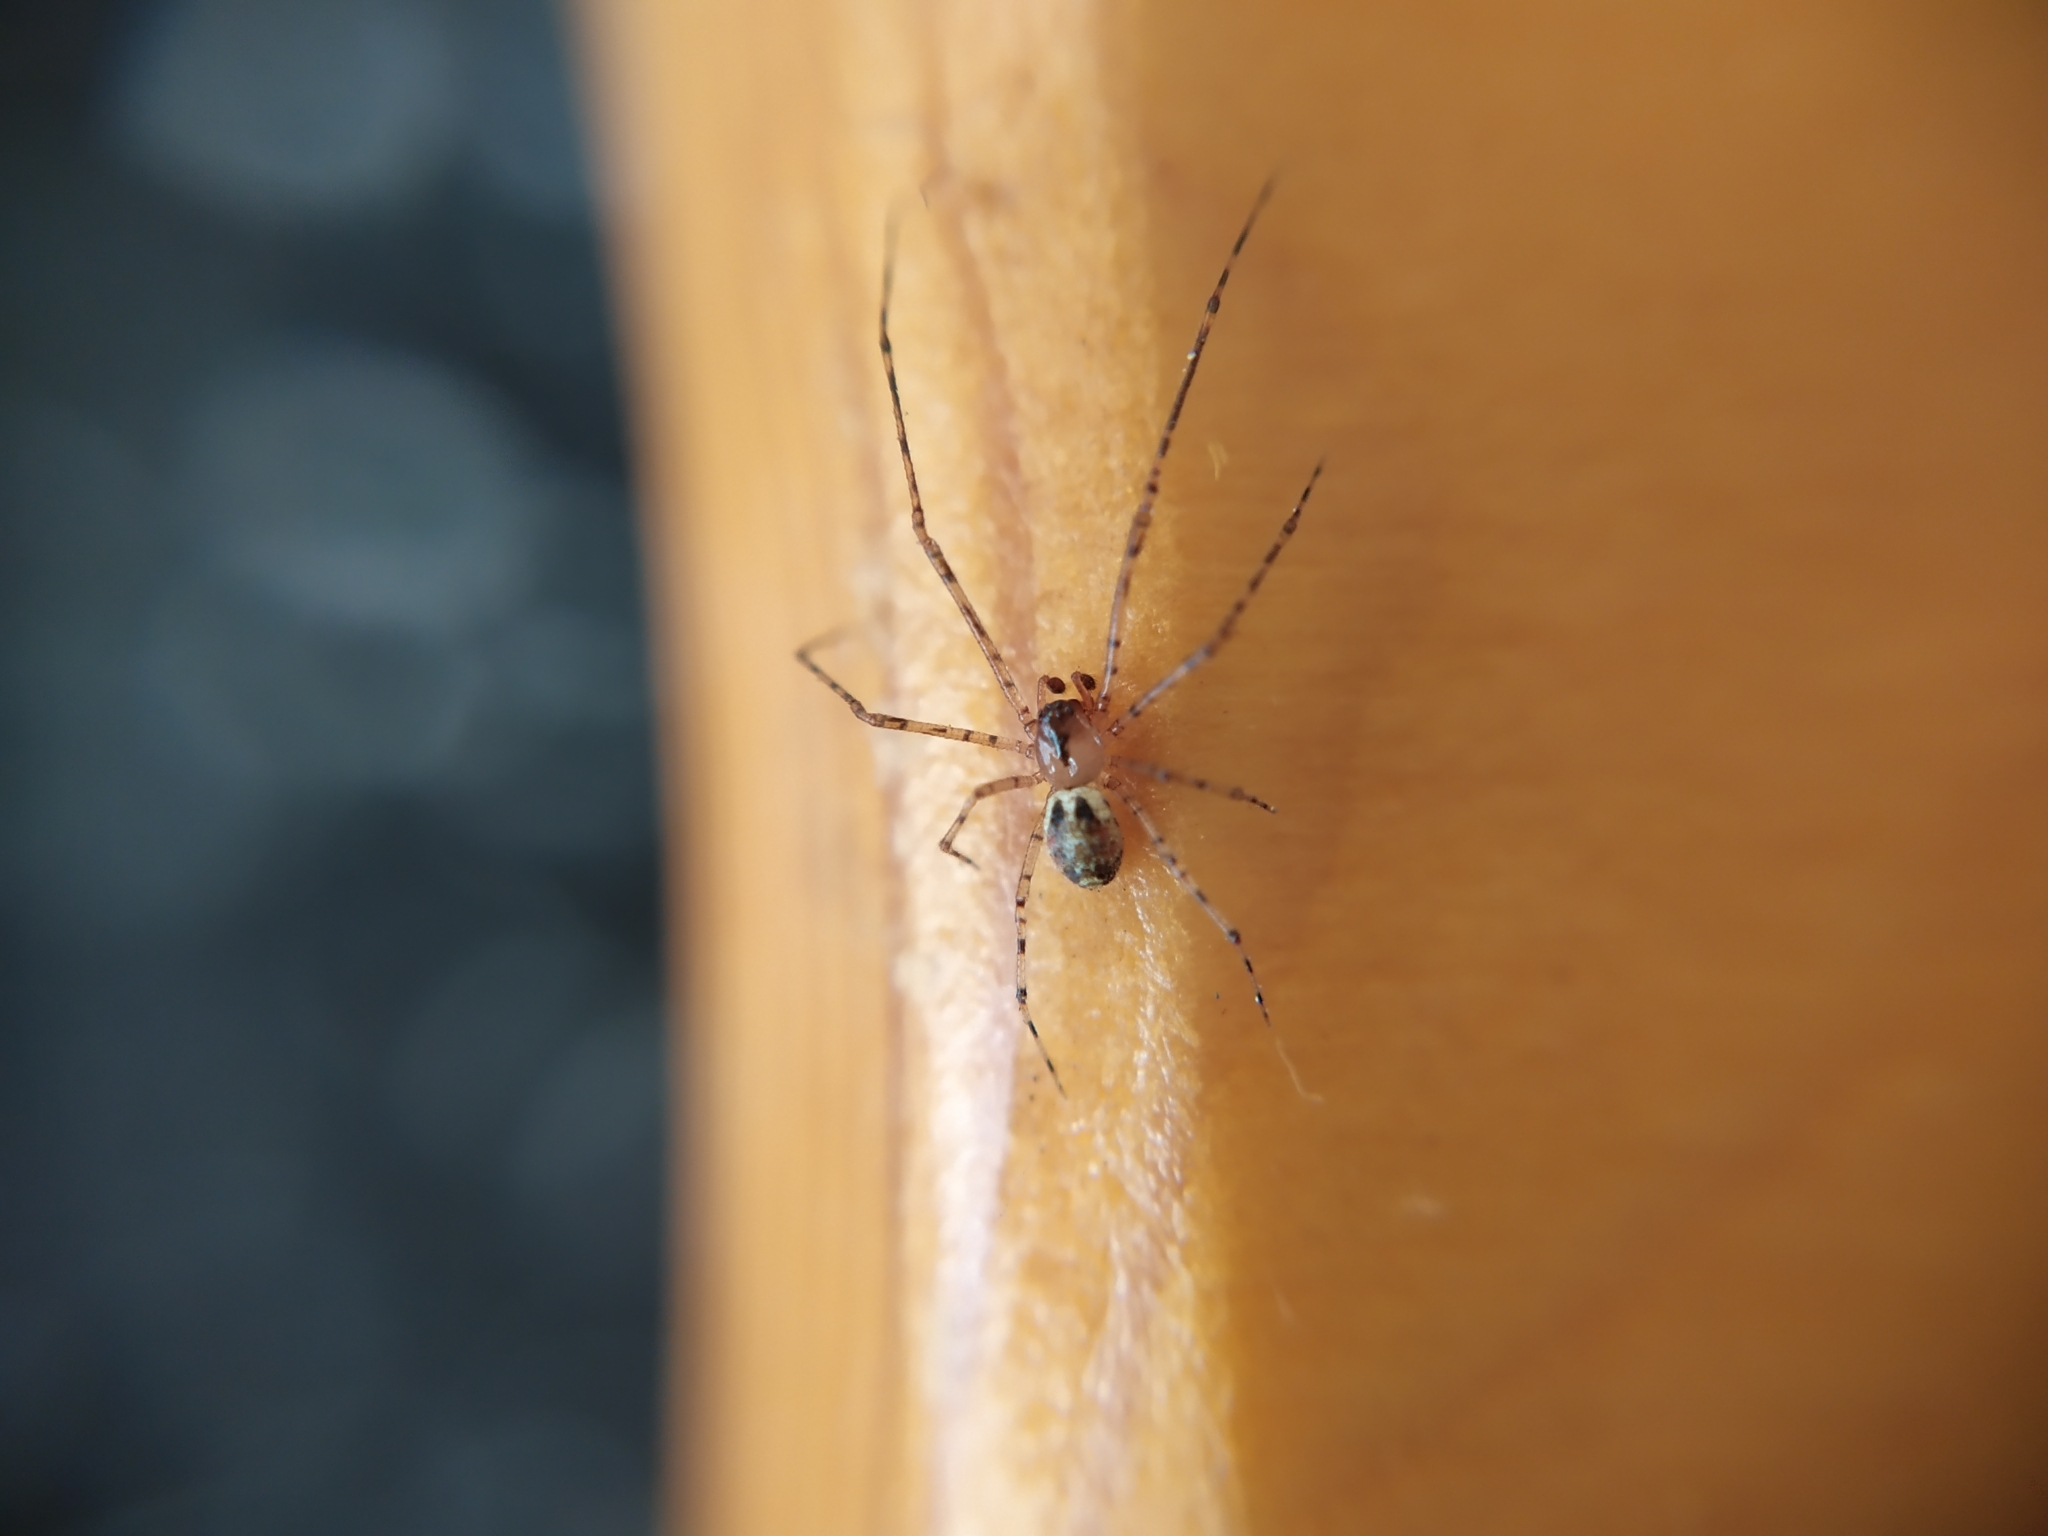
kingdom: Animalia
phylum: Arthropoda
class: Arachnida
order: Araneae
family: Theridiidae
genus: Platnickina
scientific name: Platnickina tincta
